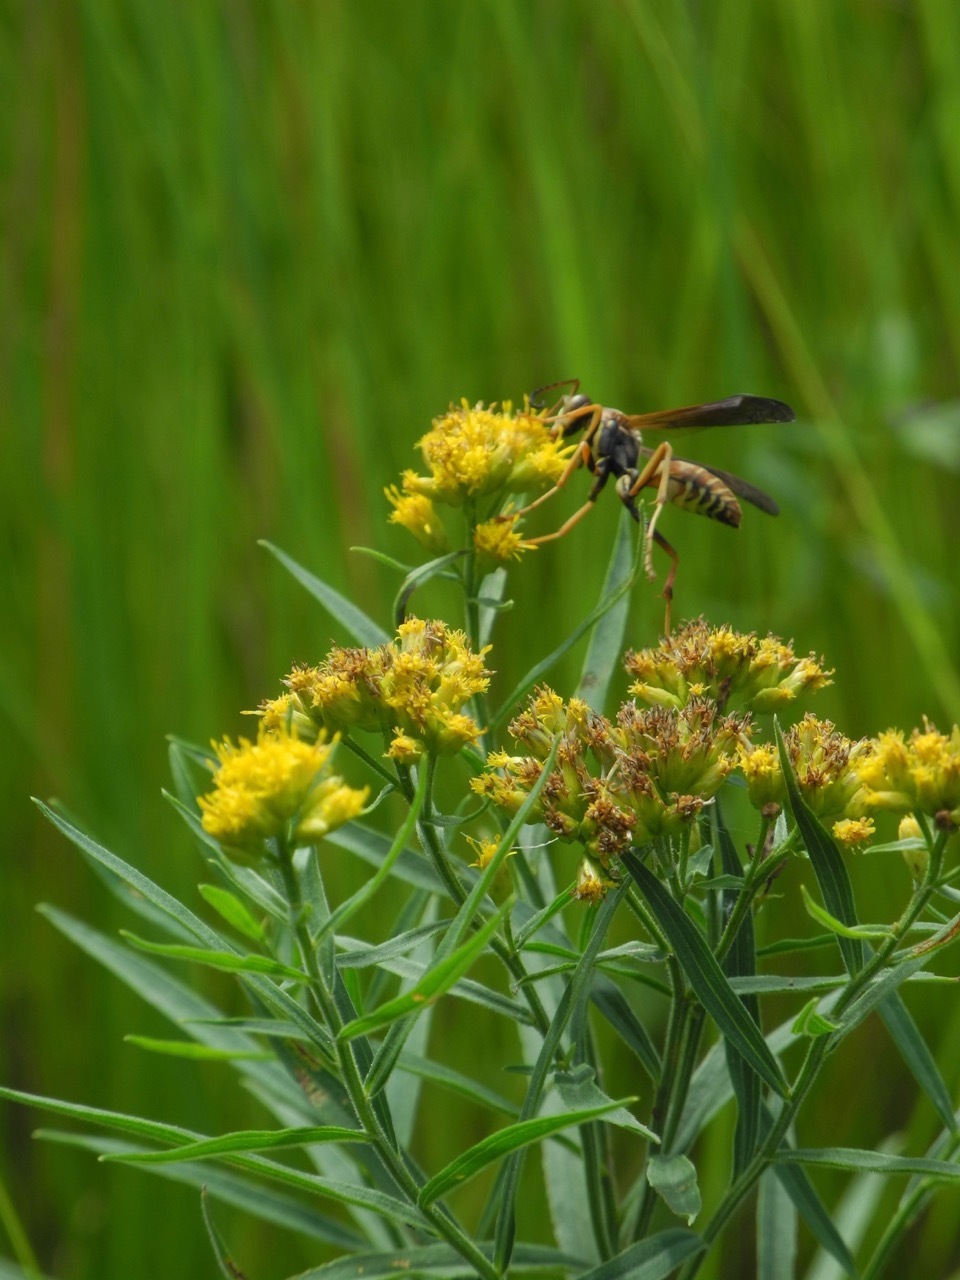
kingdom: Plantae
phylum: Tracheophyta
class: Magnoliopsida
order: Asterales
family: Asteraceae
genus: Euthamia
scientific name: Euthamia graminifolia
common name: Common goldentop
